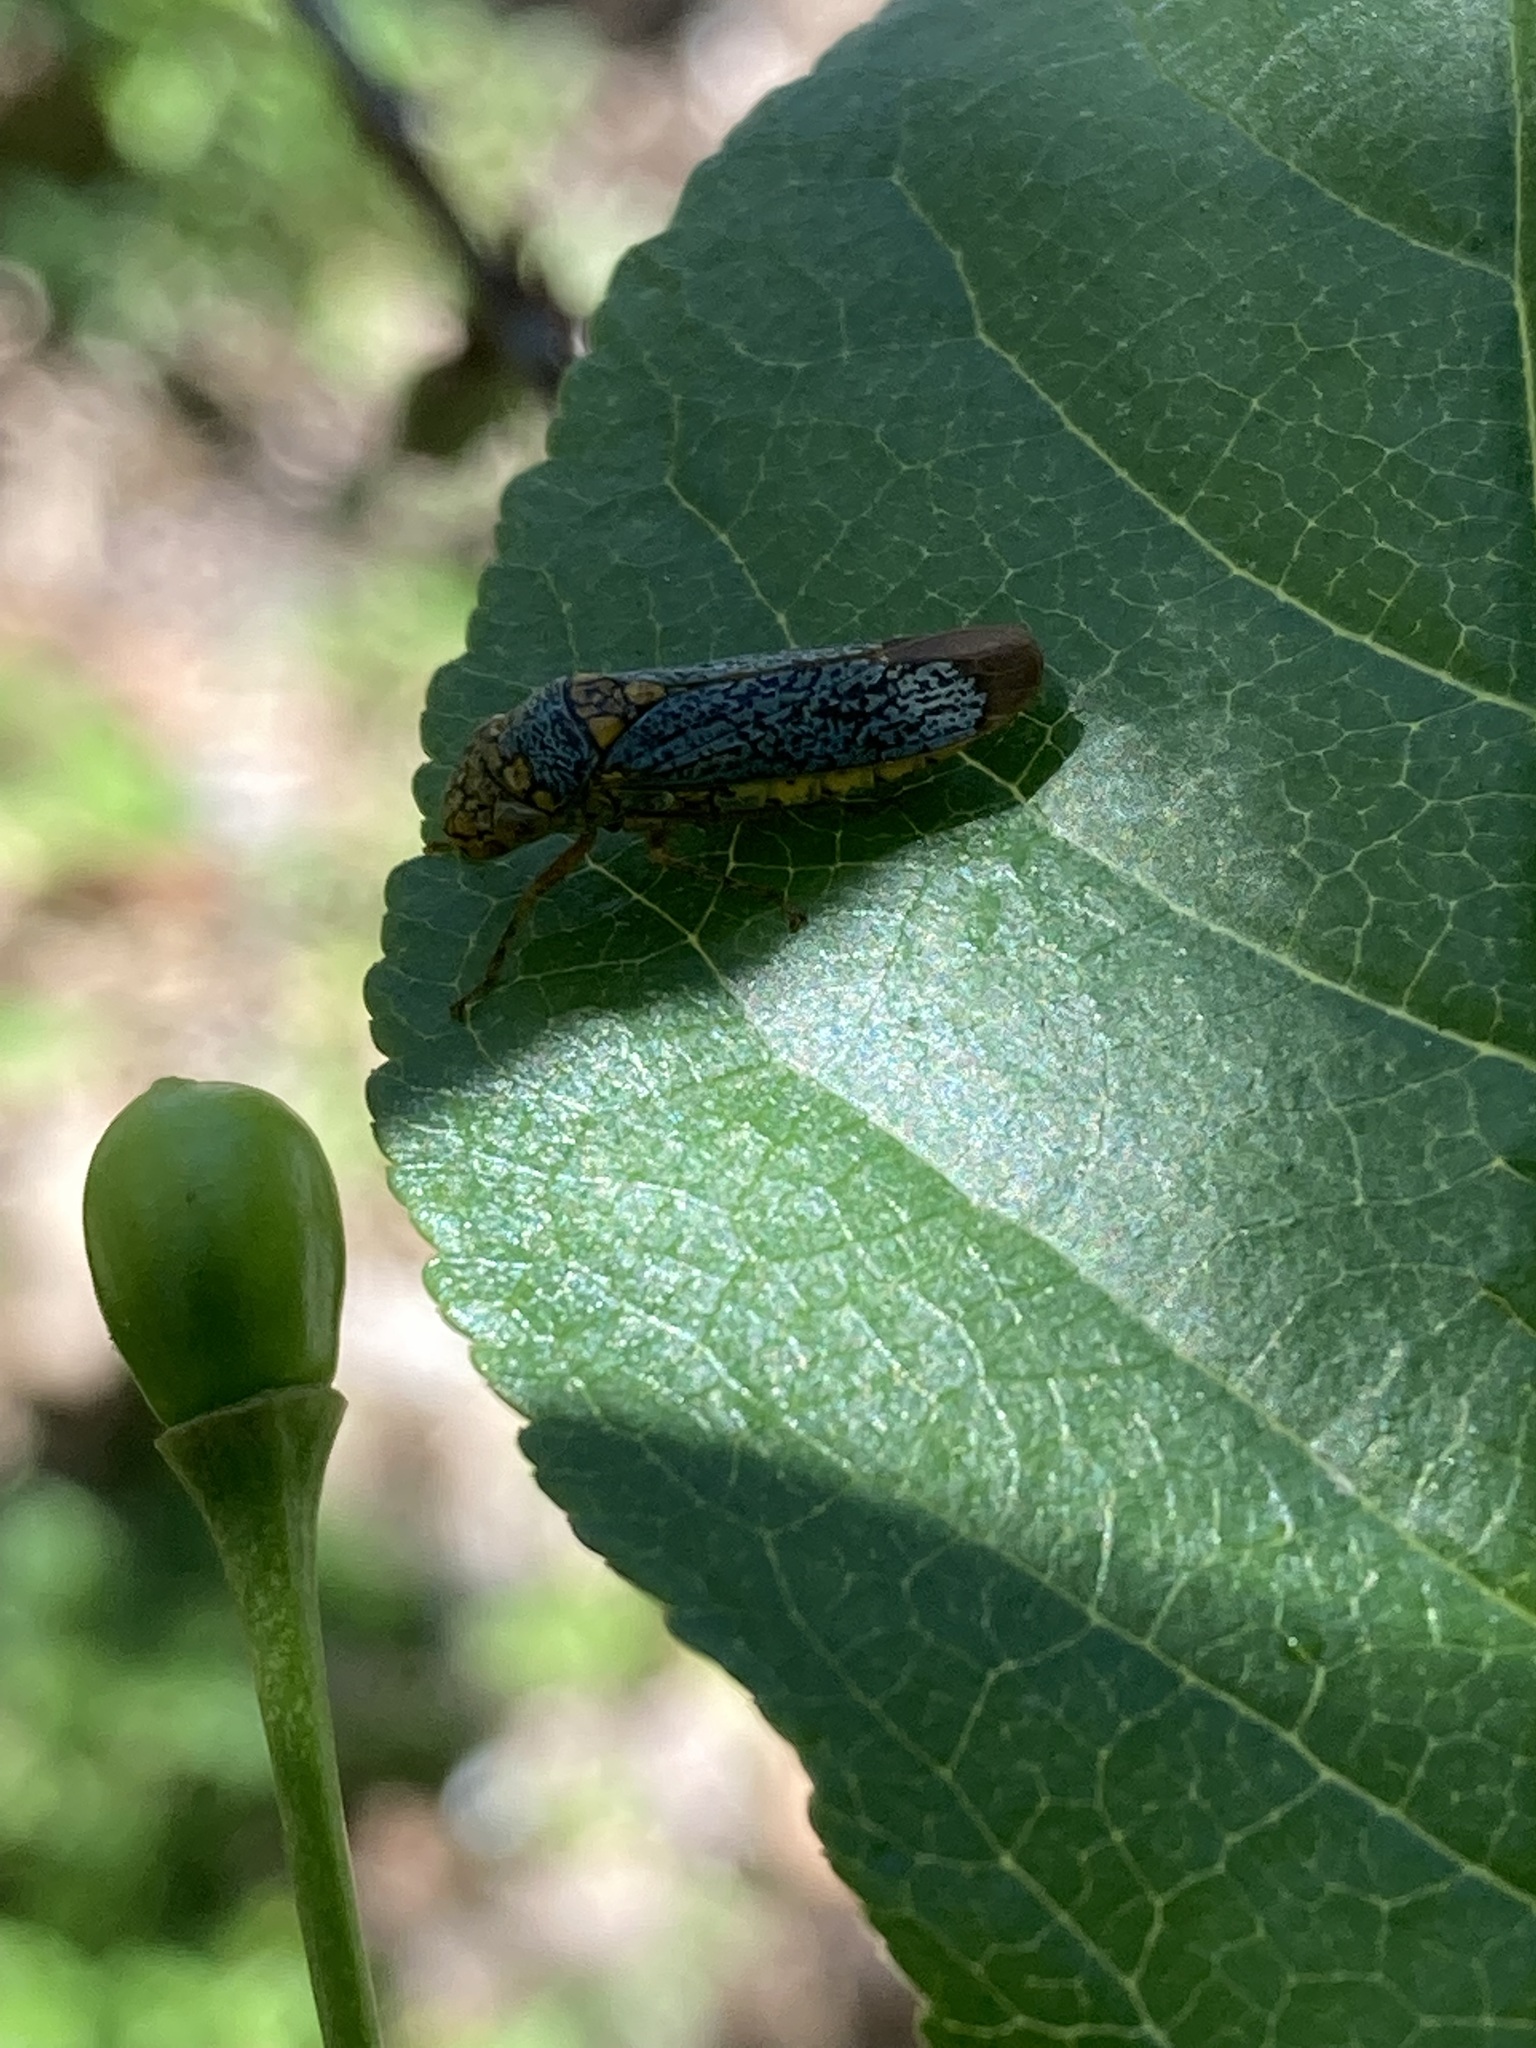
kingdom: Animalia
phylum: Arthropoda
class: Insecta
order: Hemiptera
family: Cicadellidae
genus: Oncometopia
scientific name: Oncometopia orbona
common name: Broad-headed sharpshooter
